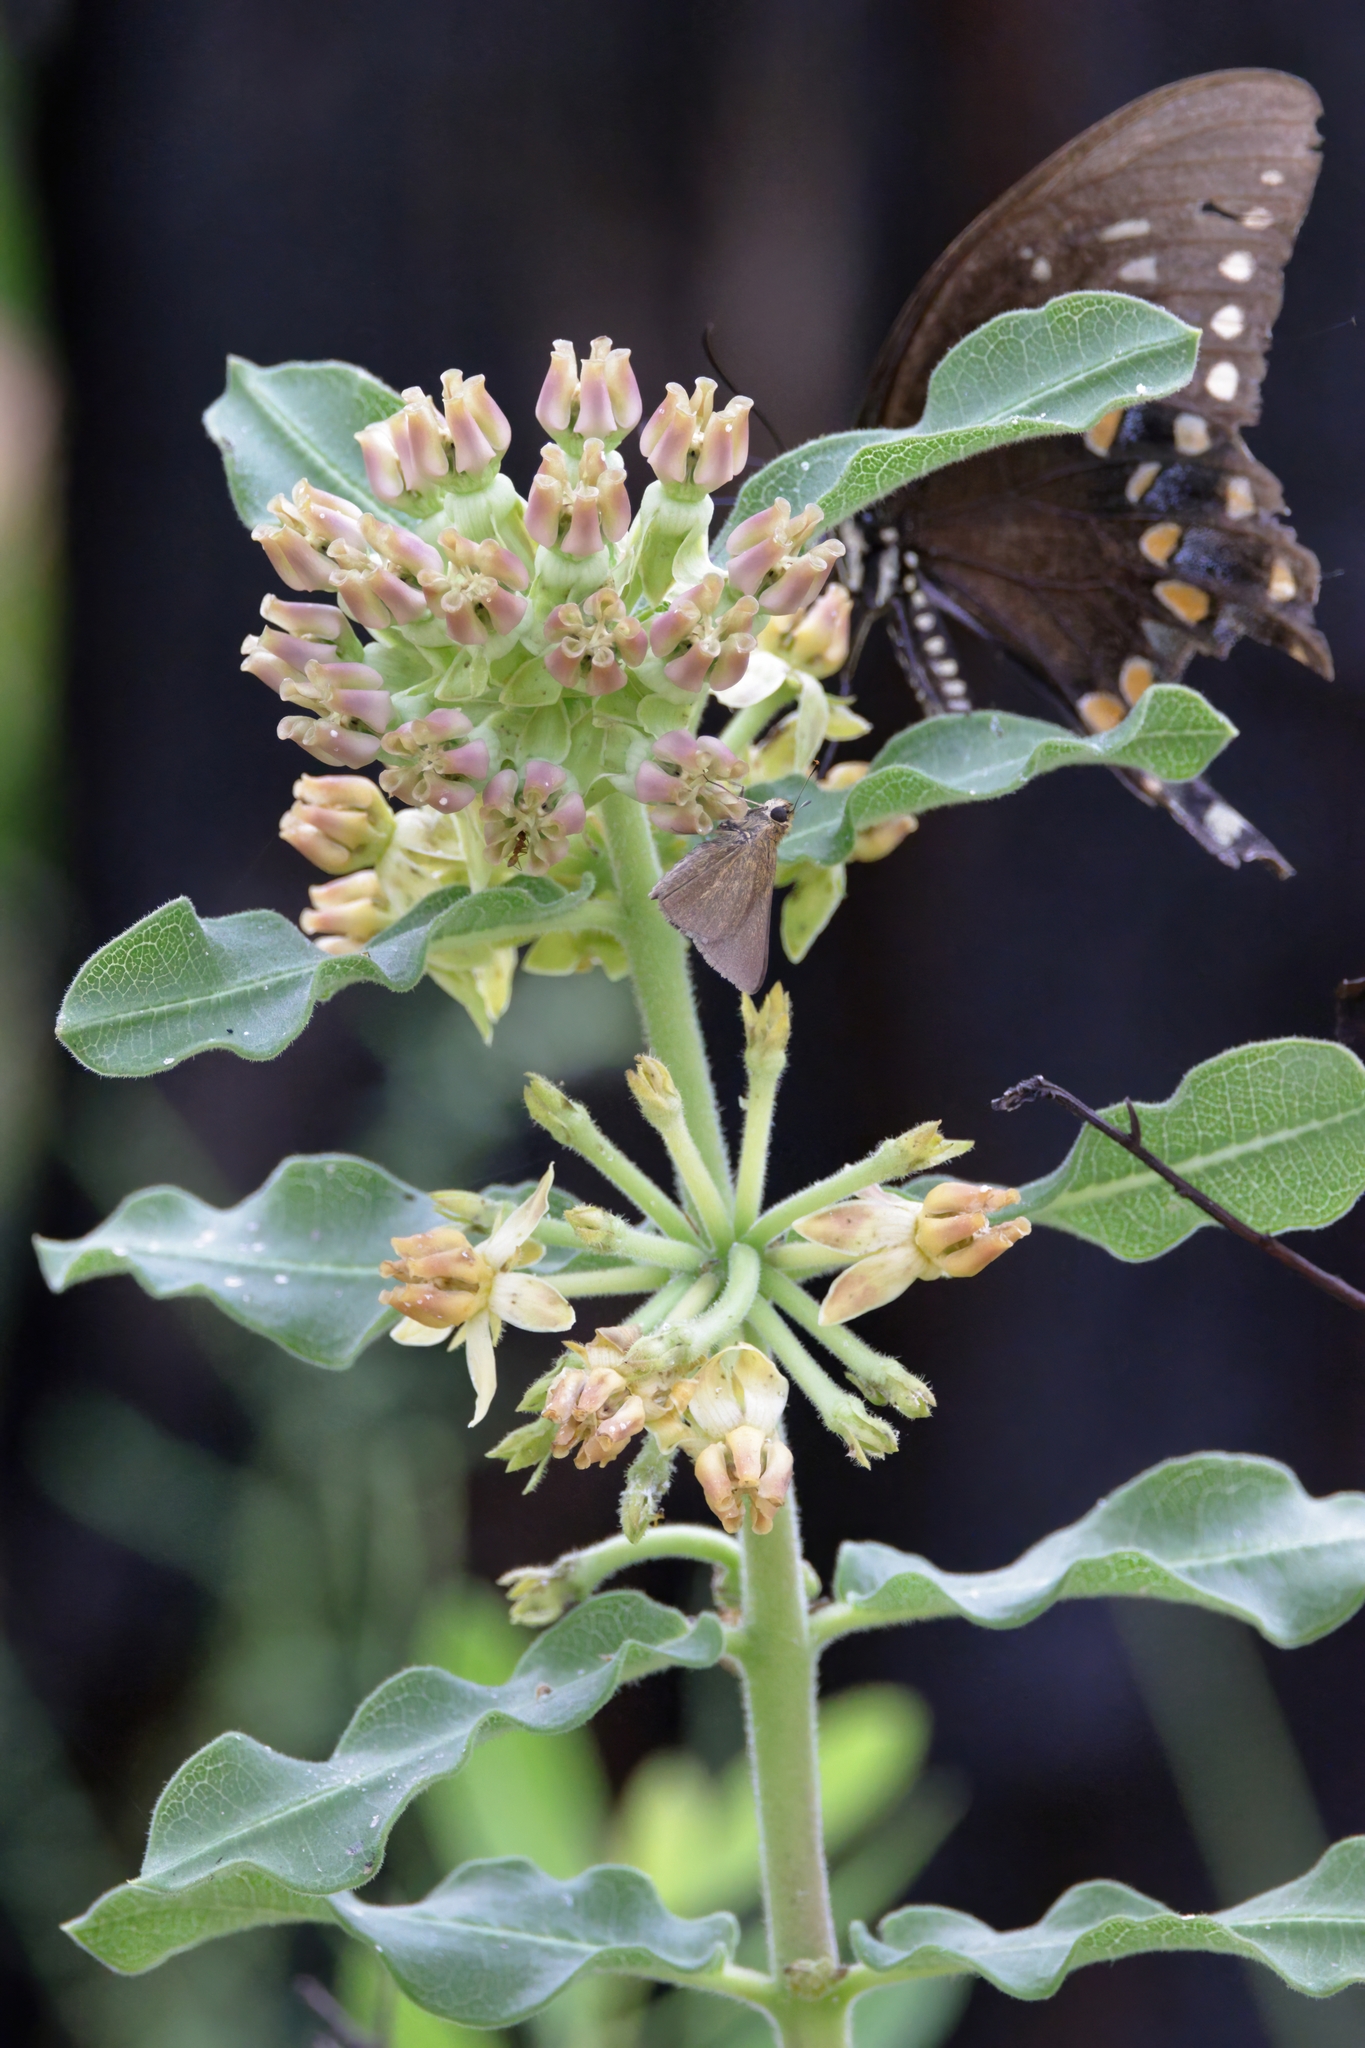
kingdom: Plantae
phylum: Tracheophyta
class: Magnoliopsida
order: Gentianales
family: Apocynaceae
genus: Asclepias
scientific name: Asclepias obovata
